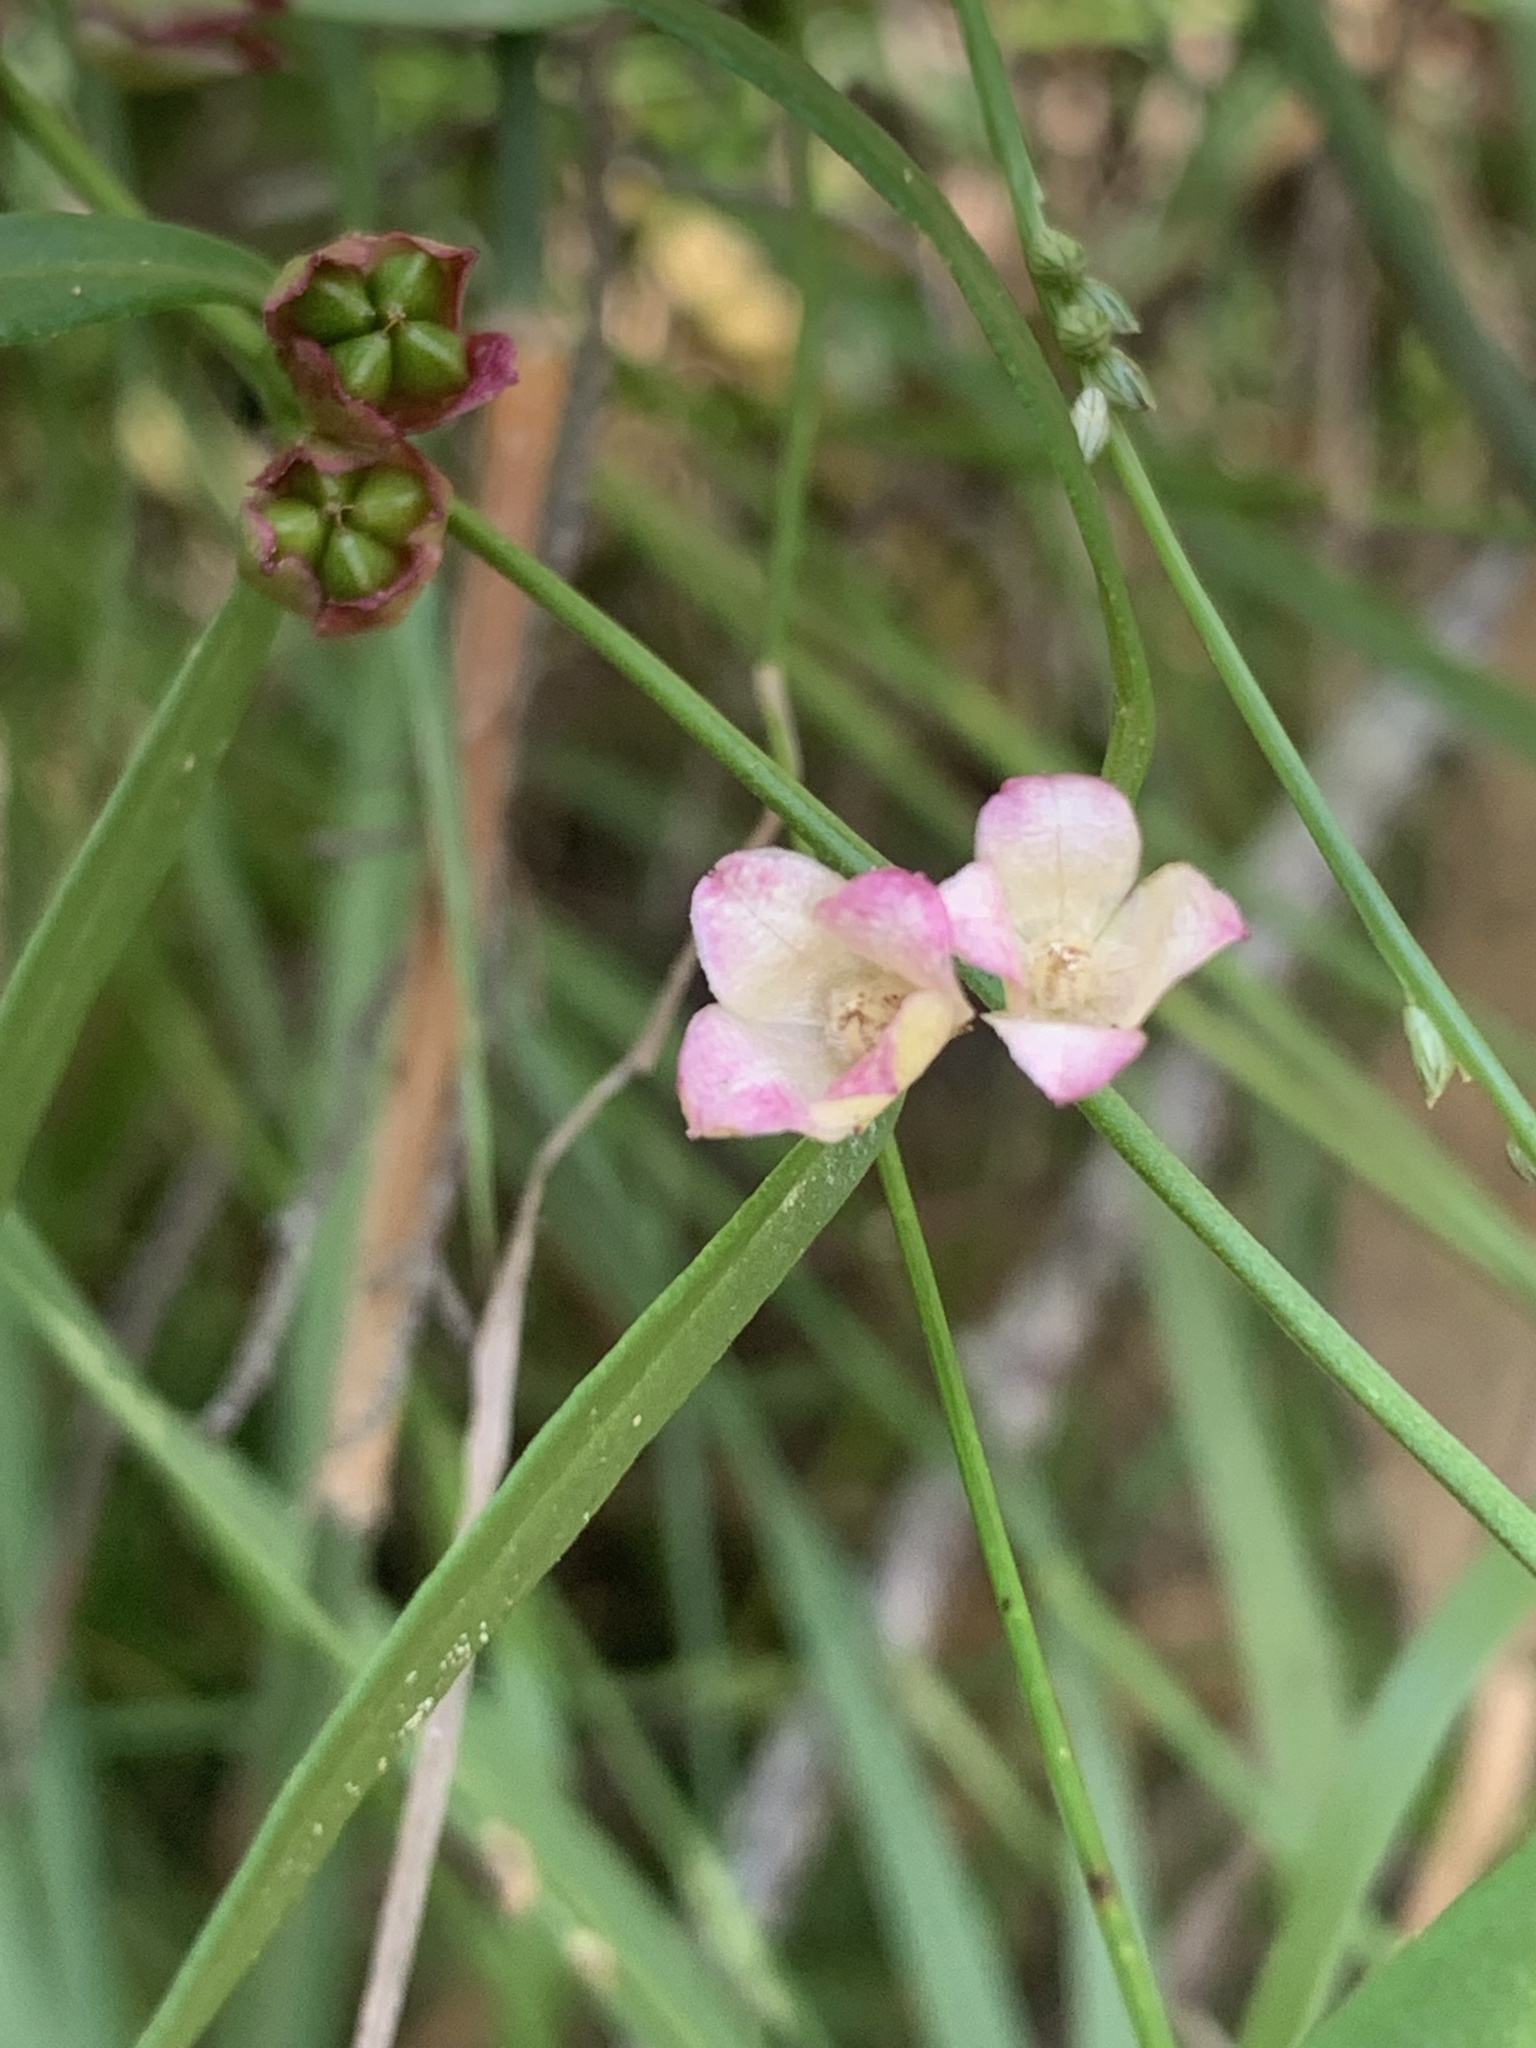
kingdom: Plantae
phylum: Tracheophyta
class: Magnoliopsida
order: Sapindales
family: Rutaceae
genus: Cyanothamnus
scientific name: Cyanothamnus polygalifolius
